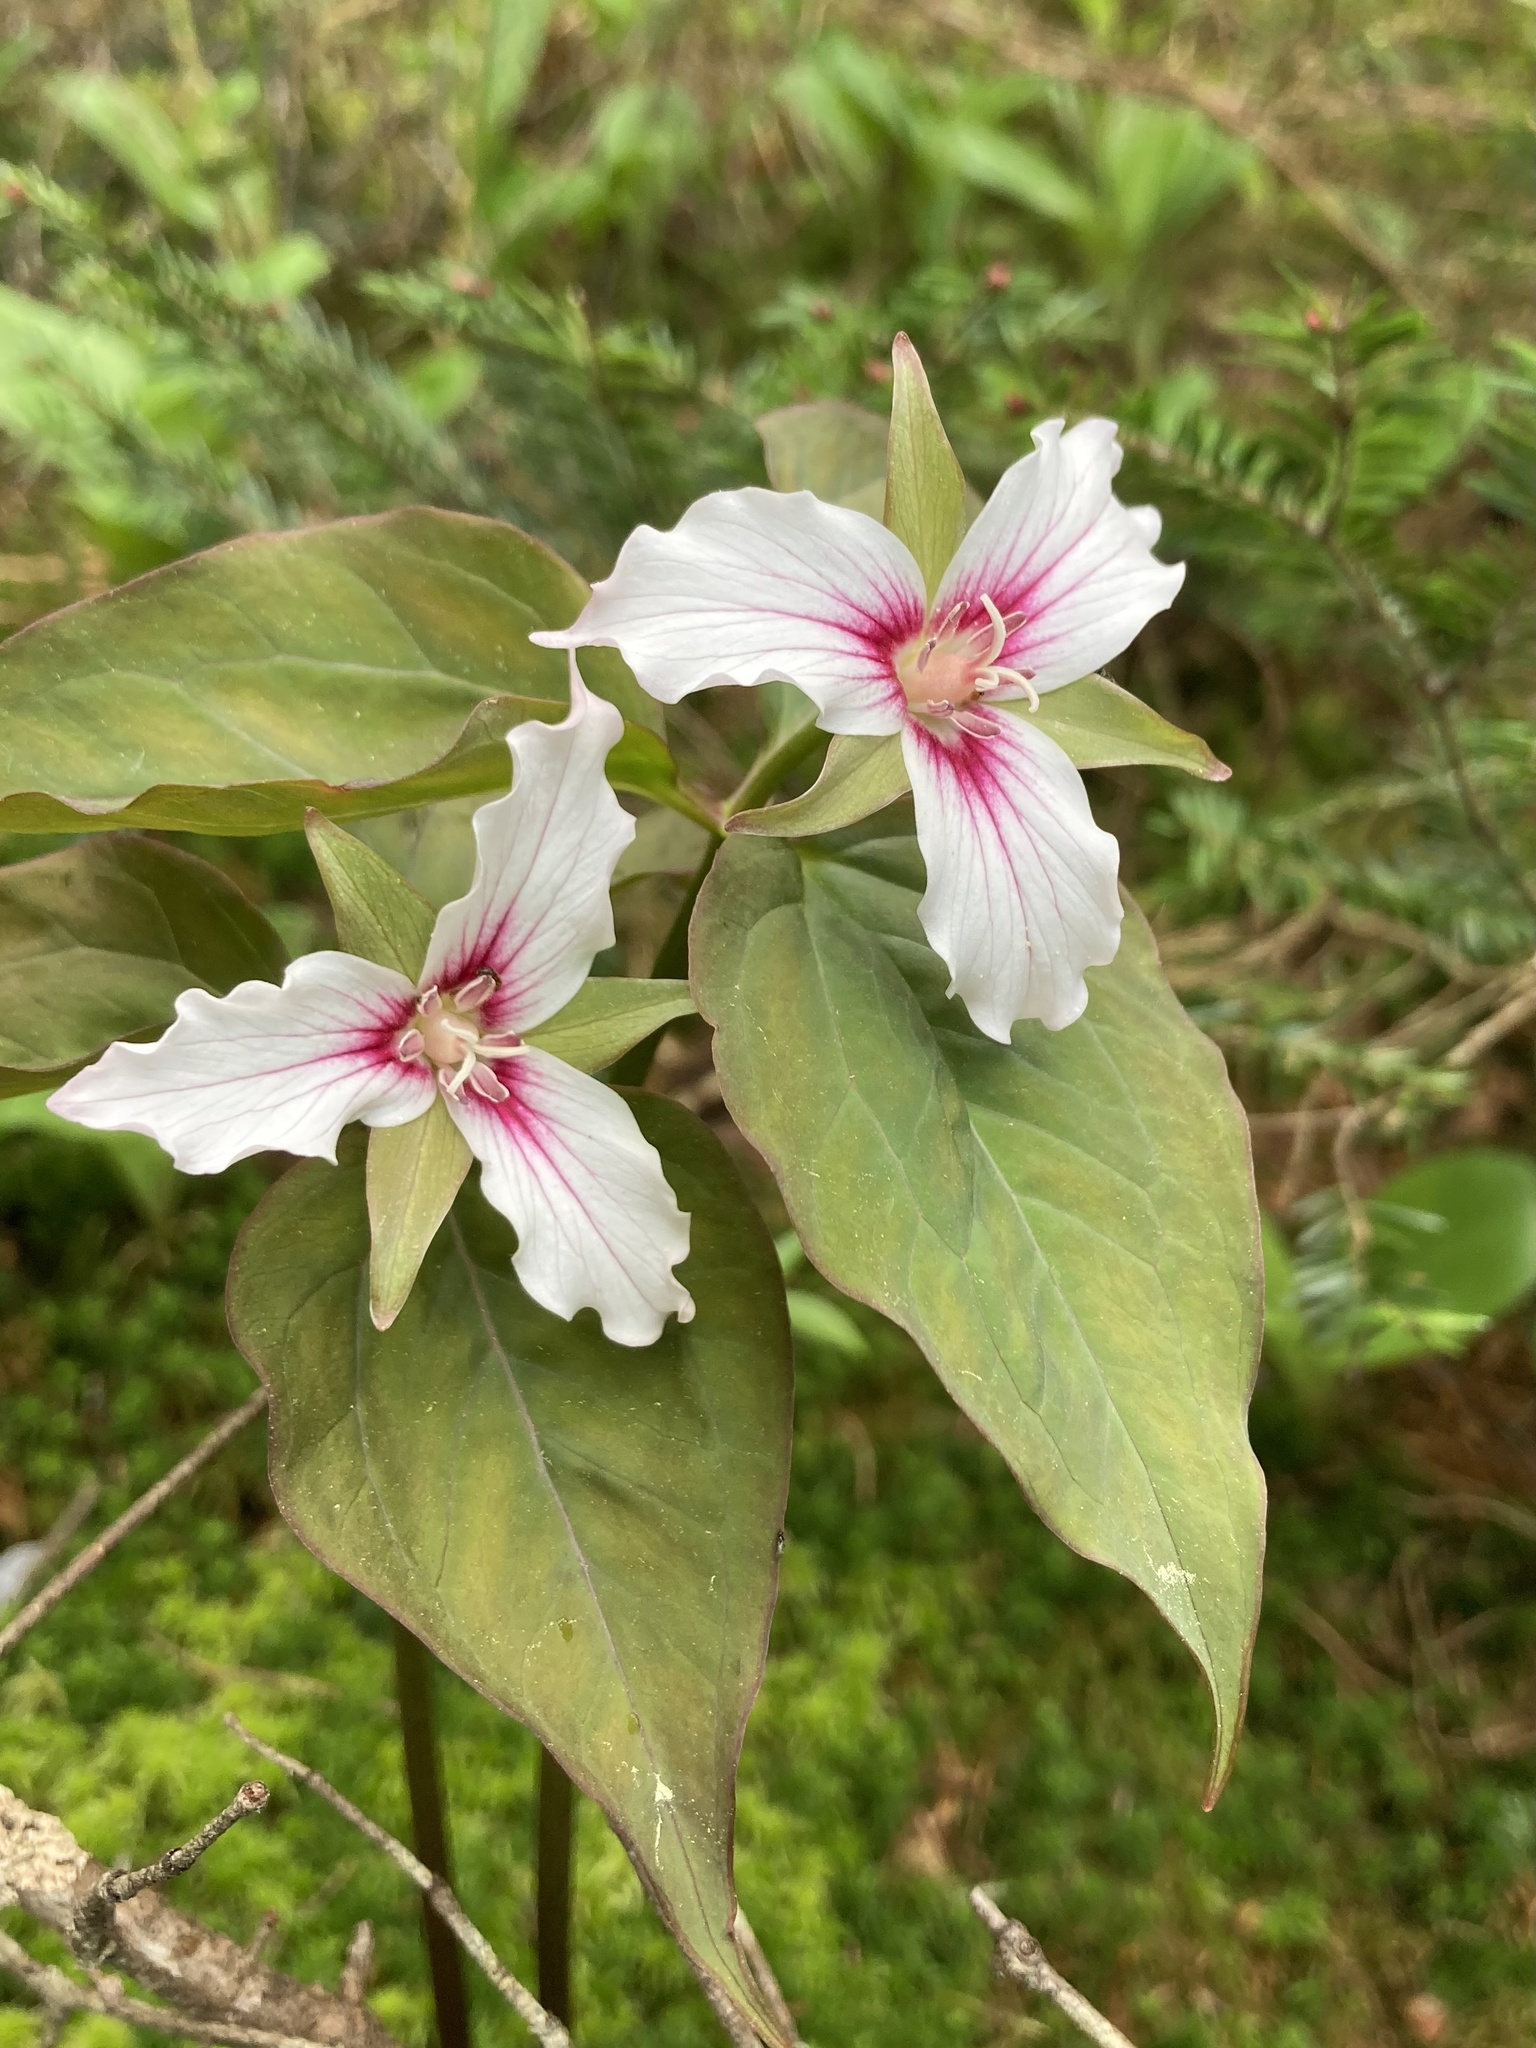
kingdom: Plantae
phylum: Tracheophyta
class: Liliopsida
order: Liliales
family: Melanthiaceae
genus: Trillium
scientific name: Trillium undulatum
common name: Paint trillium
